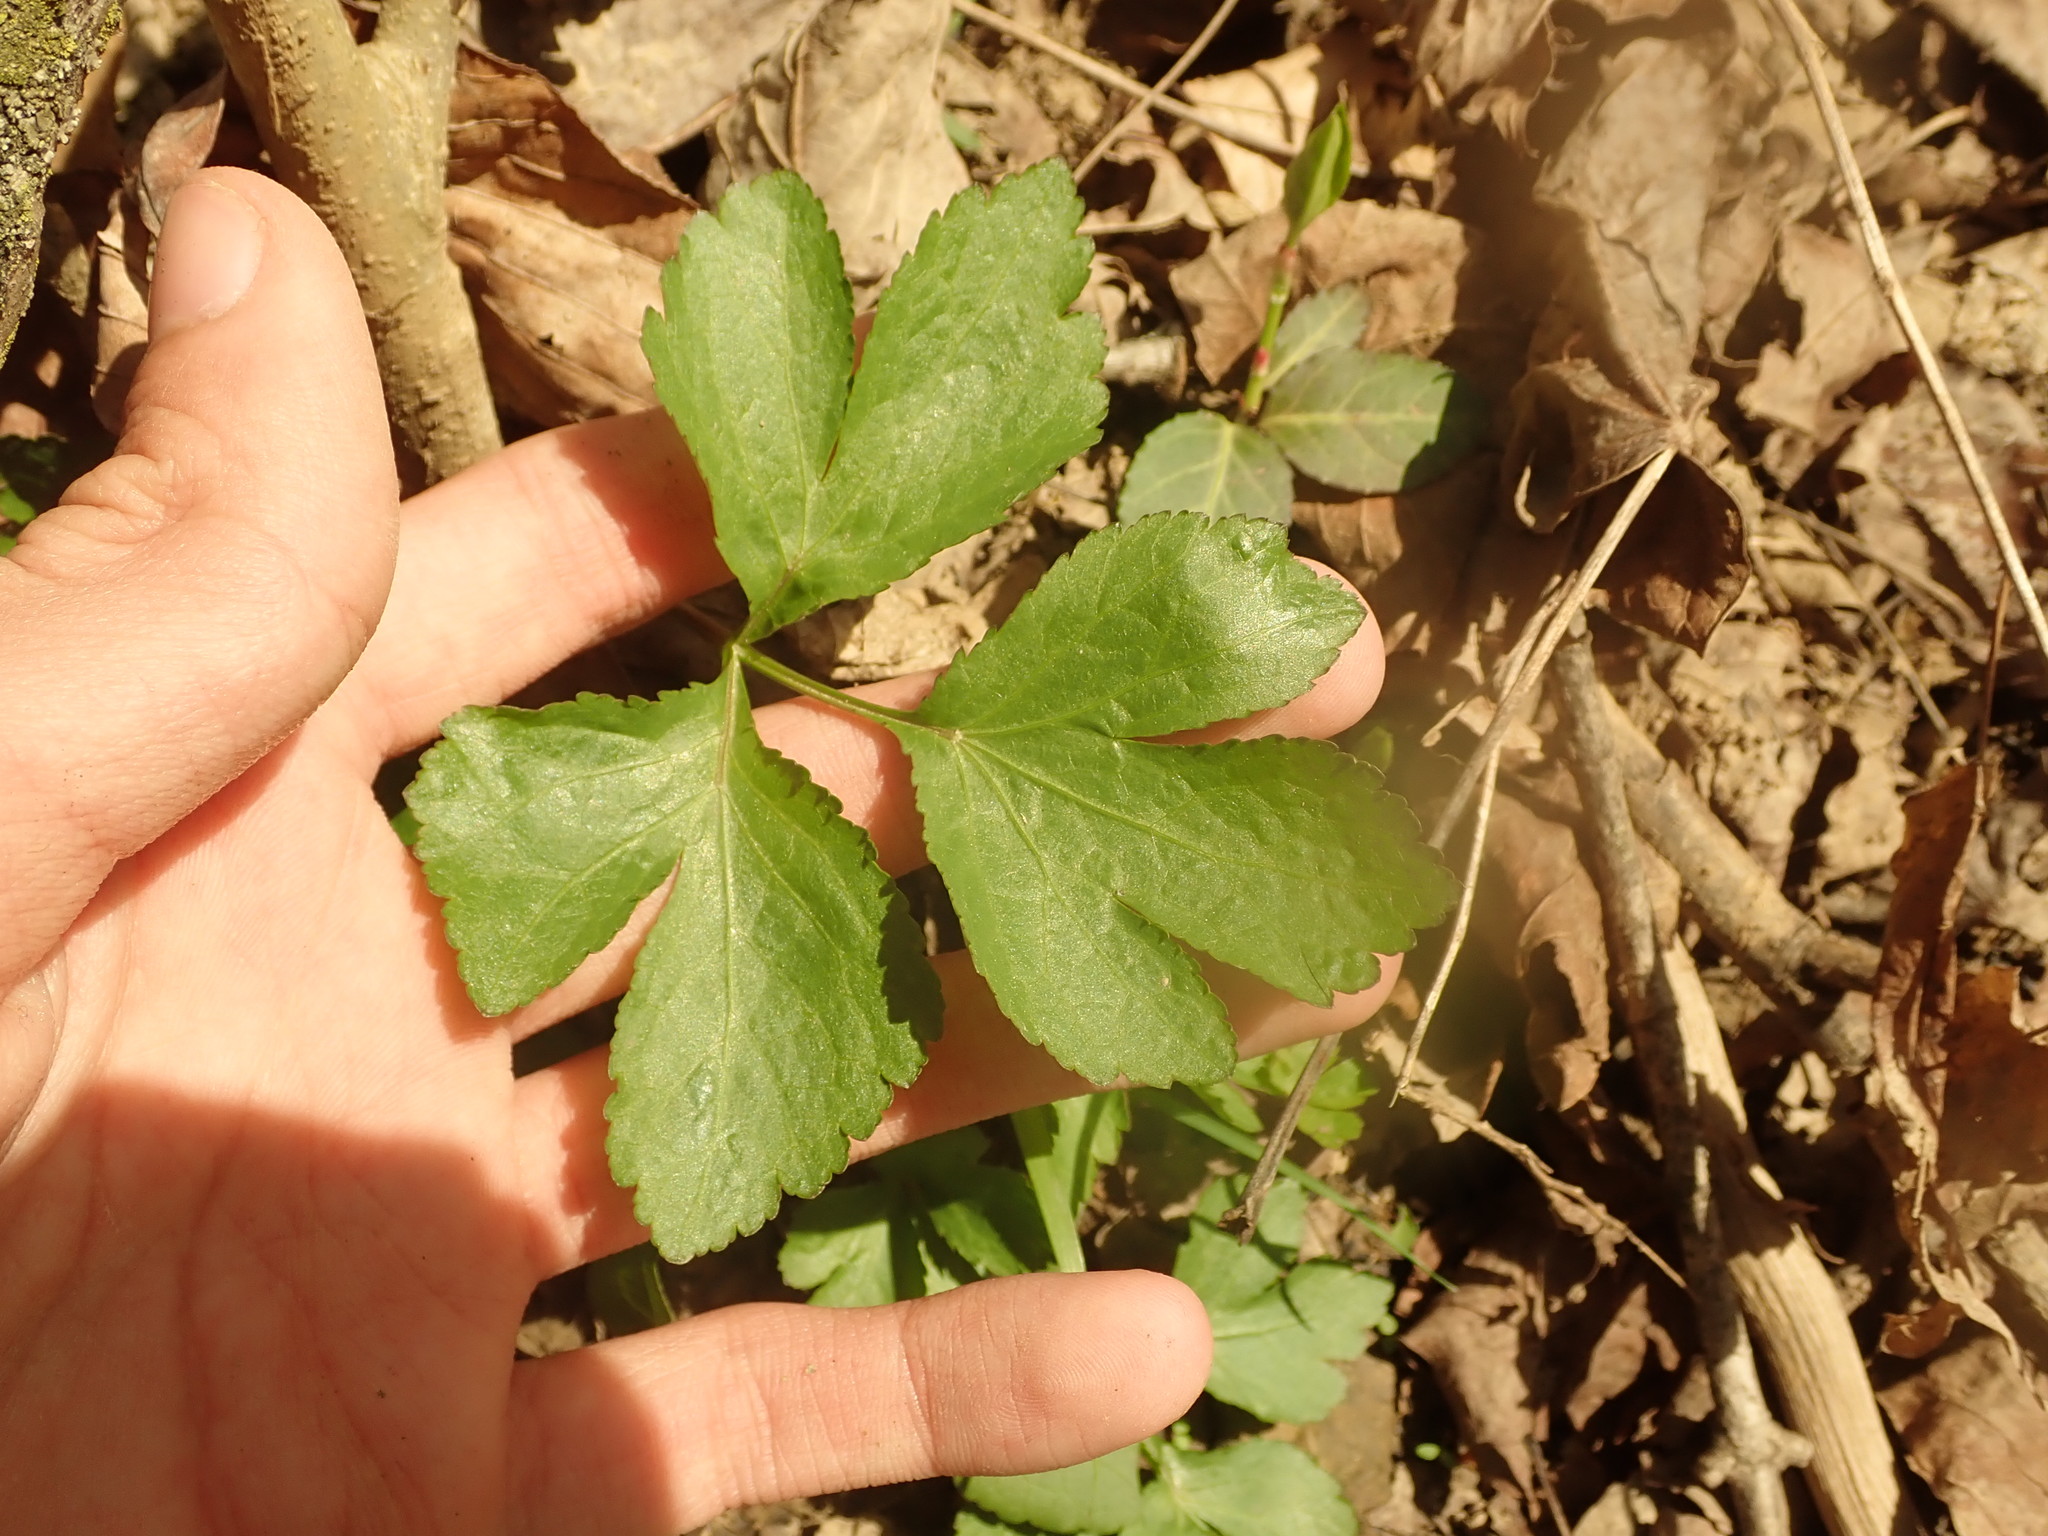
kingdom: Plantae
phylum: Tracheophyta
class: Magnoliopsida
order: Apiales
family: Apiaceae
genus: Cryptotaenia
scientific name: Cryptotaenia canadensis
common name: Honewort
